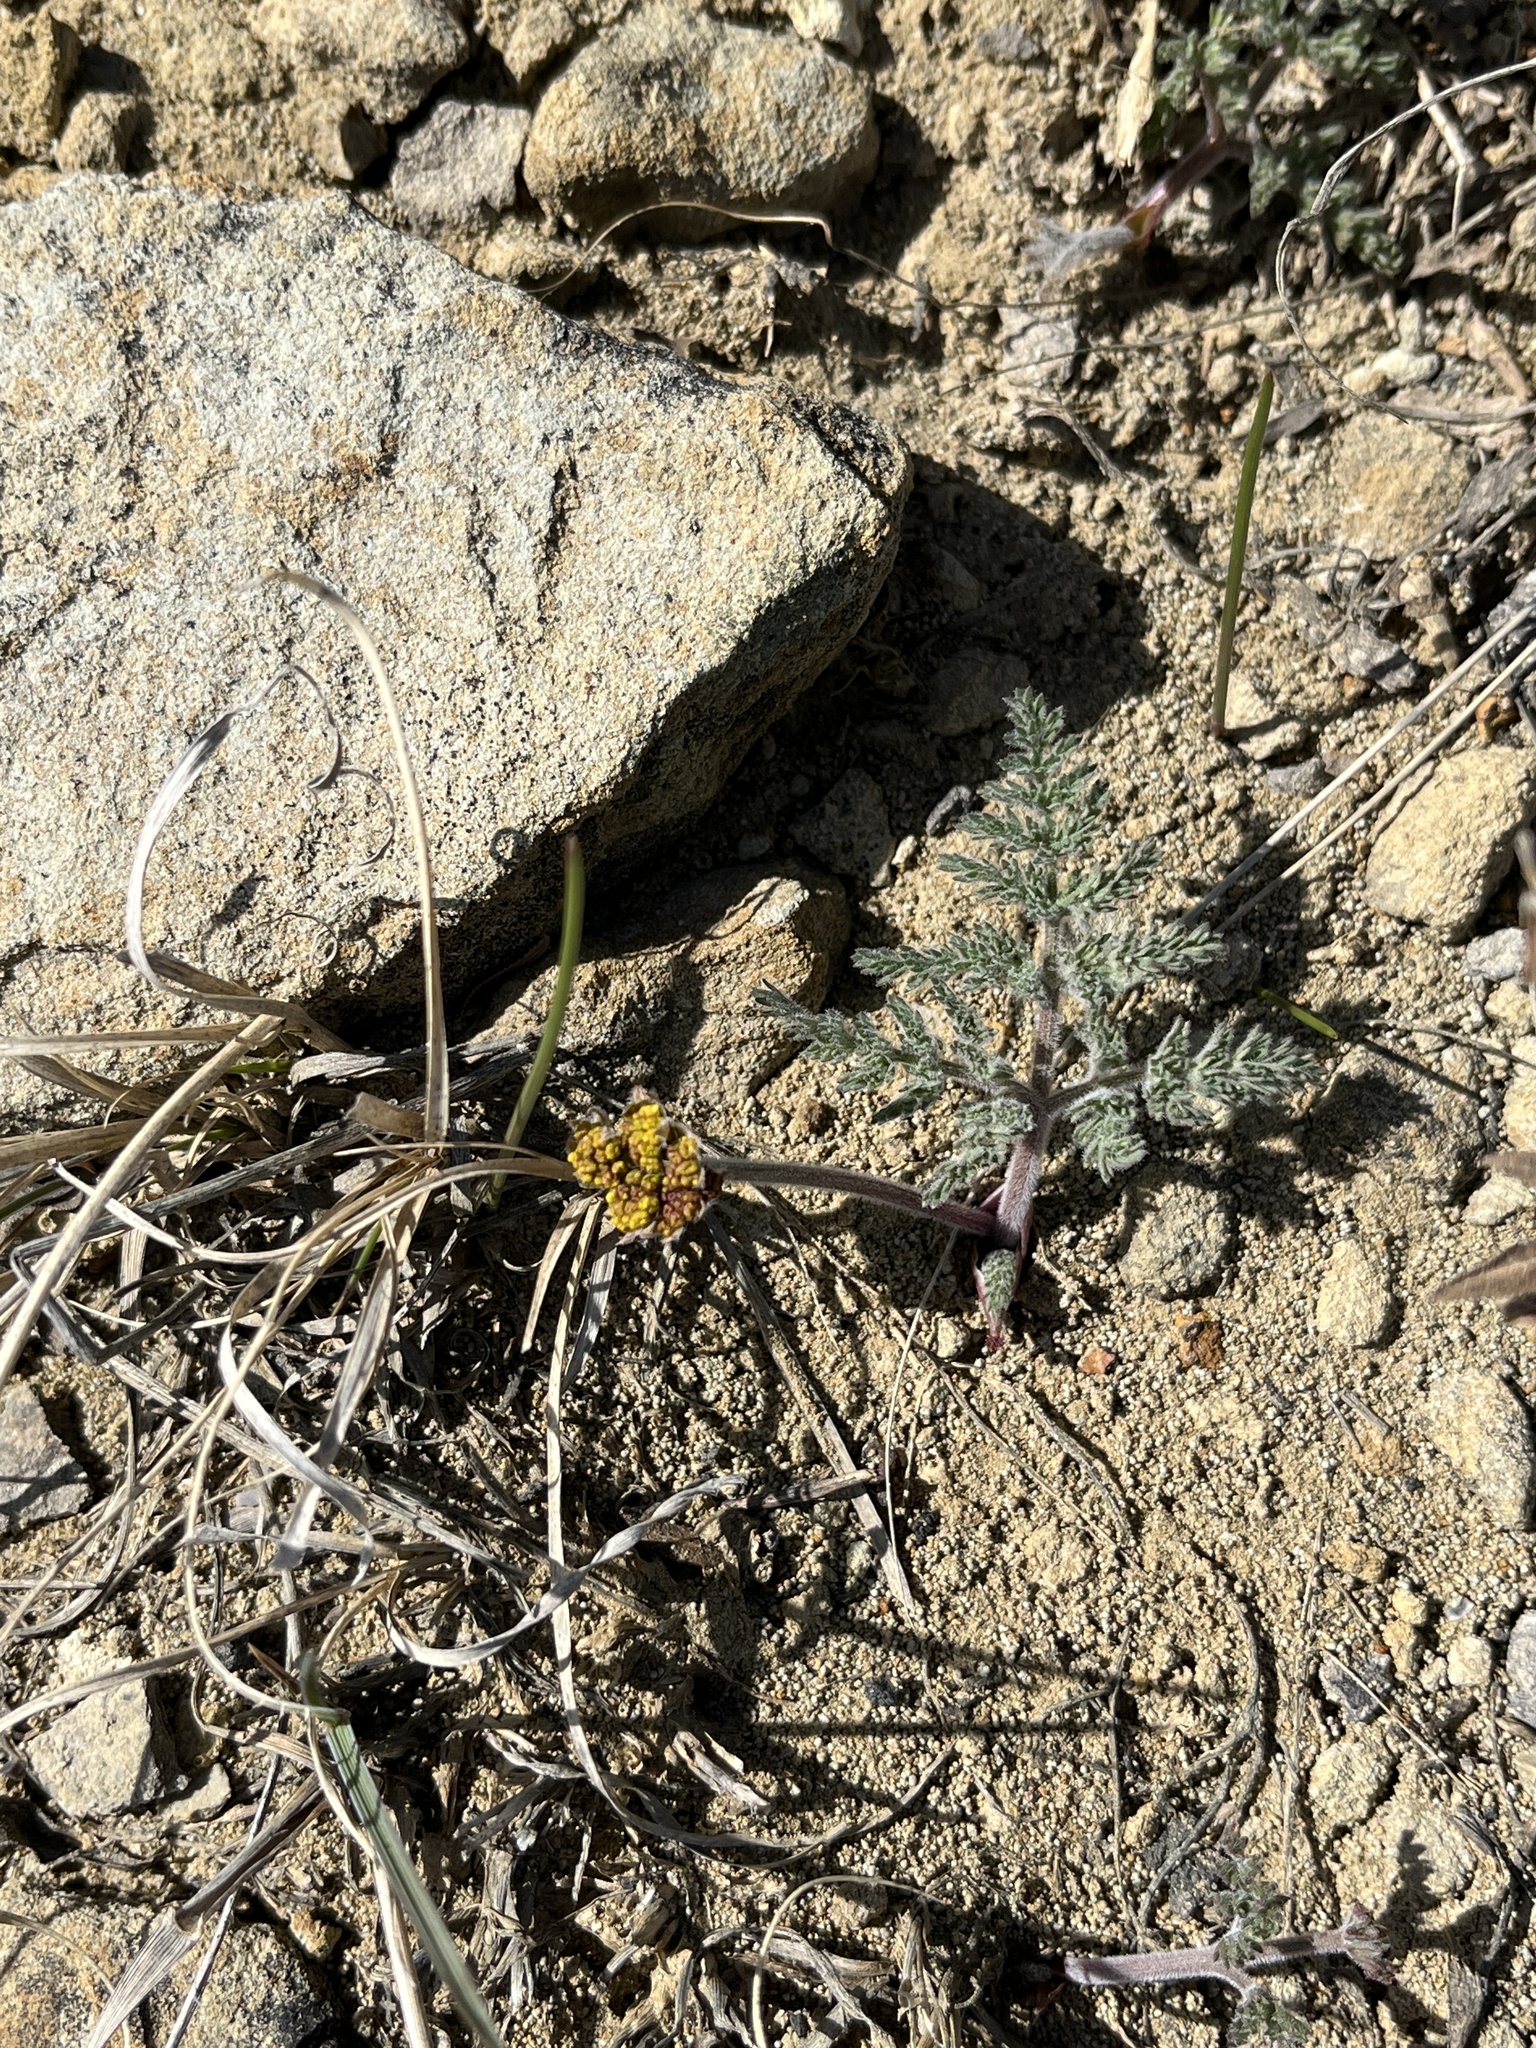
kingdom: Plantae
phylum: Tracheophyta
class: Magnoliopsida
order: Apiales
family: Apiaceae
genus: Lomatium
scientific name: Lomatium foeniculaceum
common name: Desert-parsley
